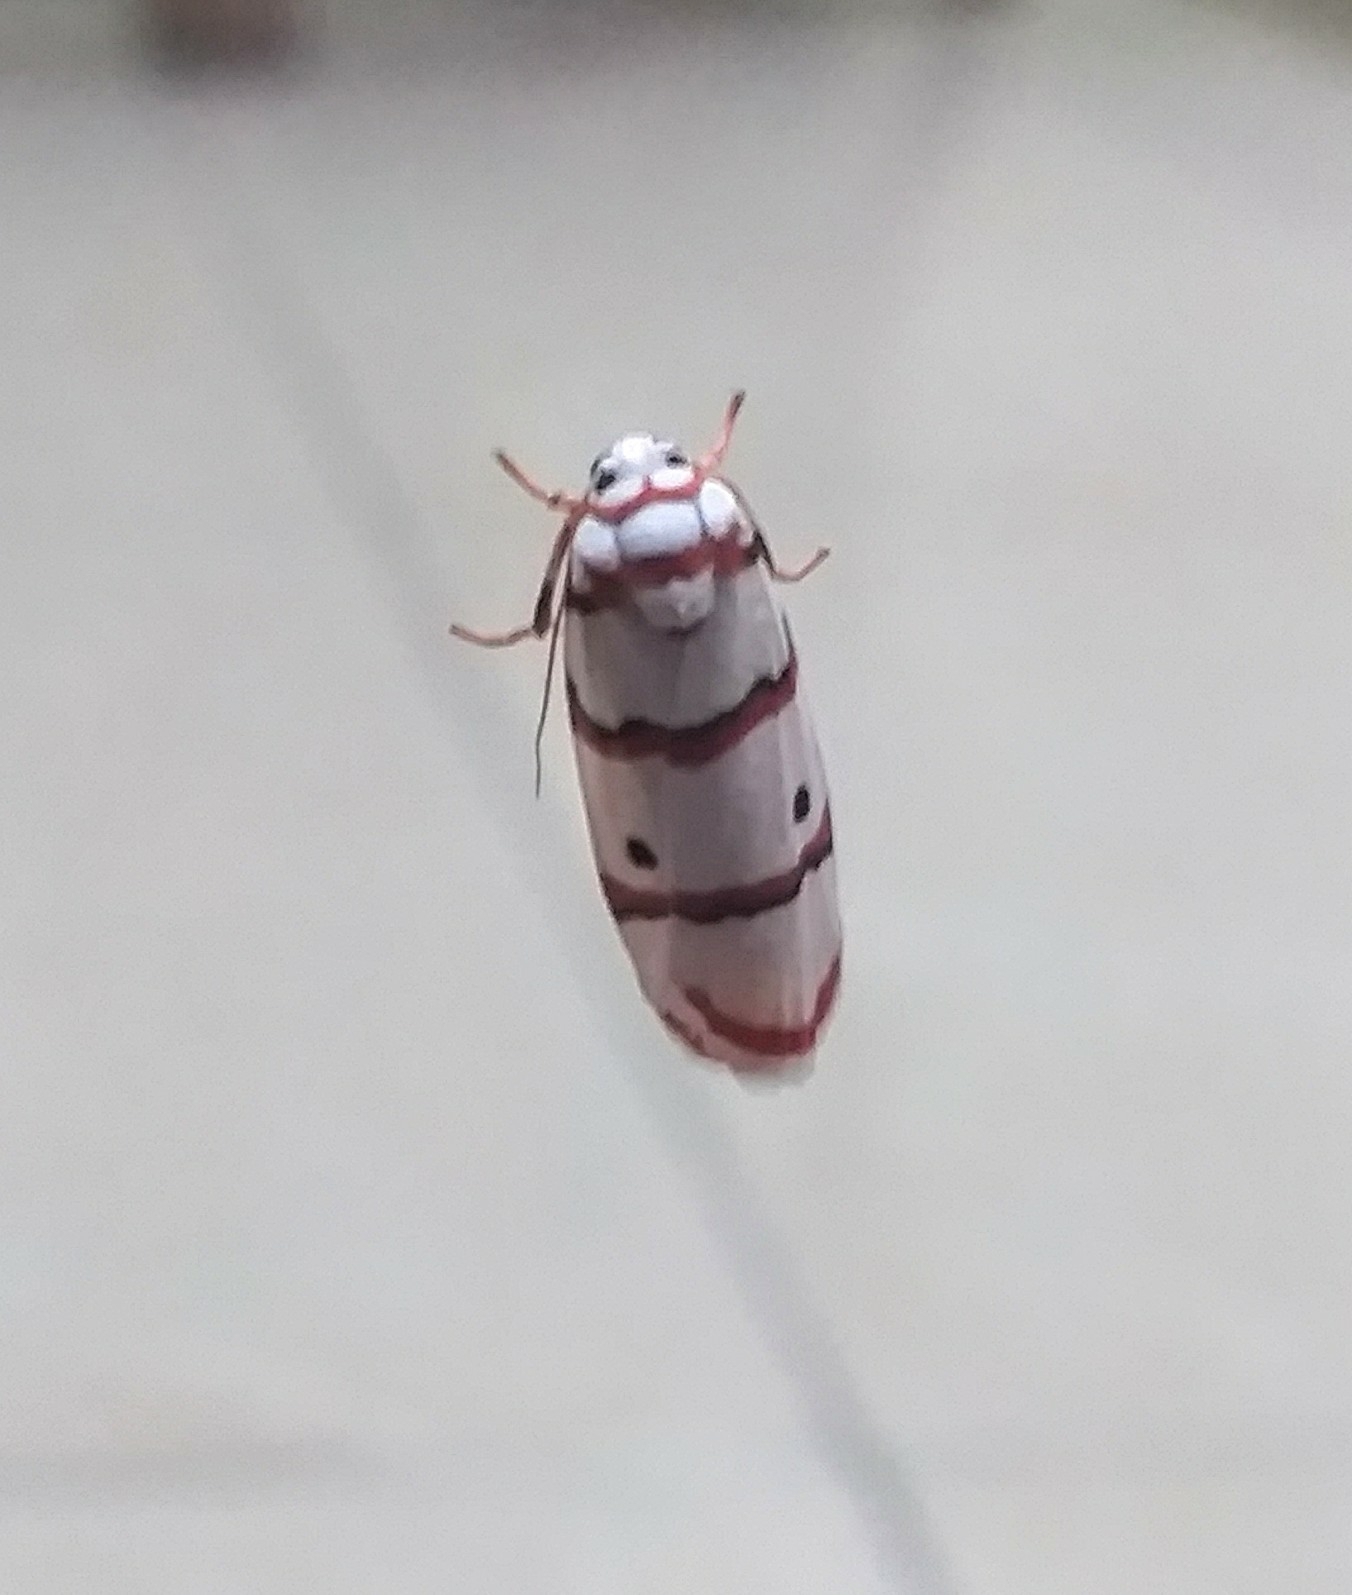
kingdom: Animalia
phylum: Arthropoda
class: Insecta
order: Lepidoptera
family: Erebidae
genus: Cyana
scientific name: Cyana peregrina
